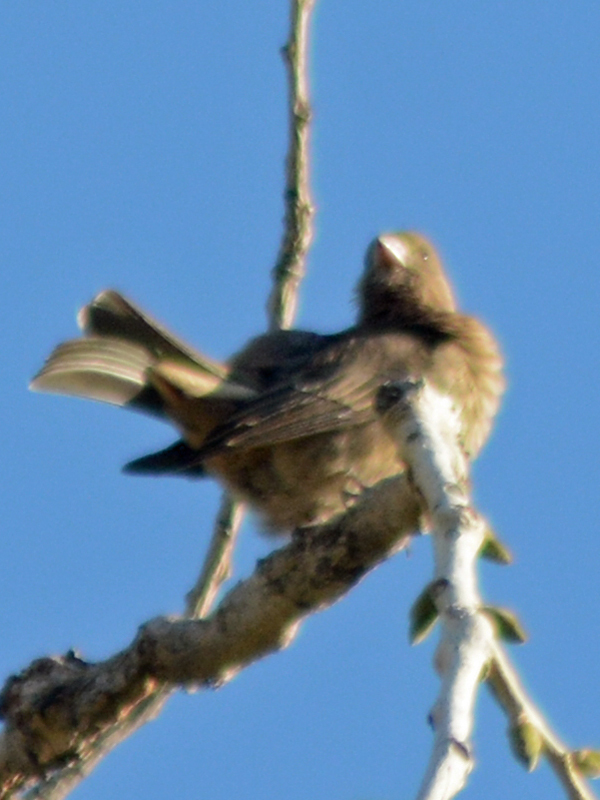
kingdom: Animalia
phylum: Chordata
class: Aves
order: Passeriformes
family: Passerellidae
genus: Melozone
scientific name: Melozone fusca
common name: Canyon towhee
